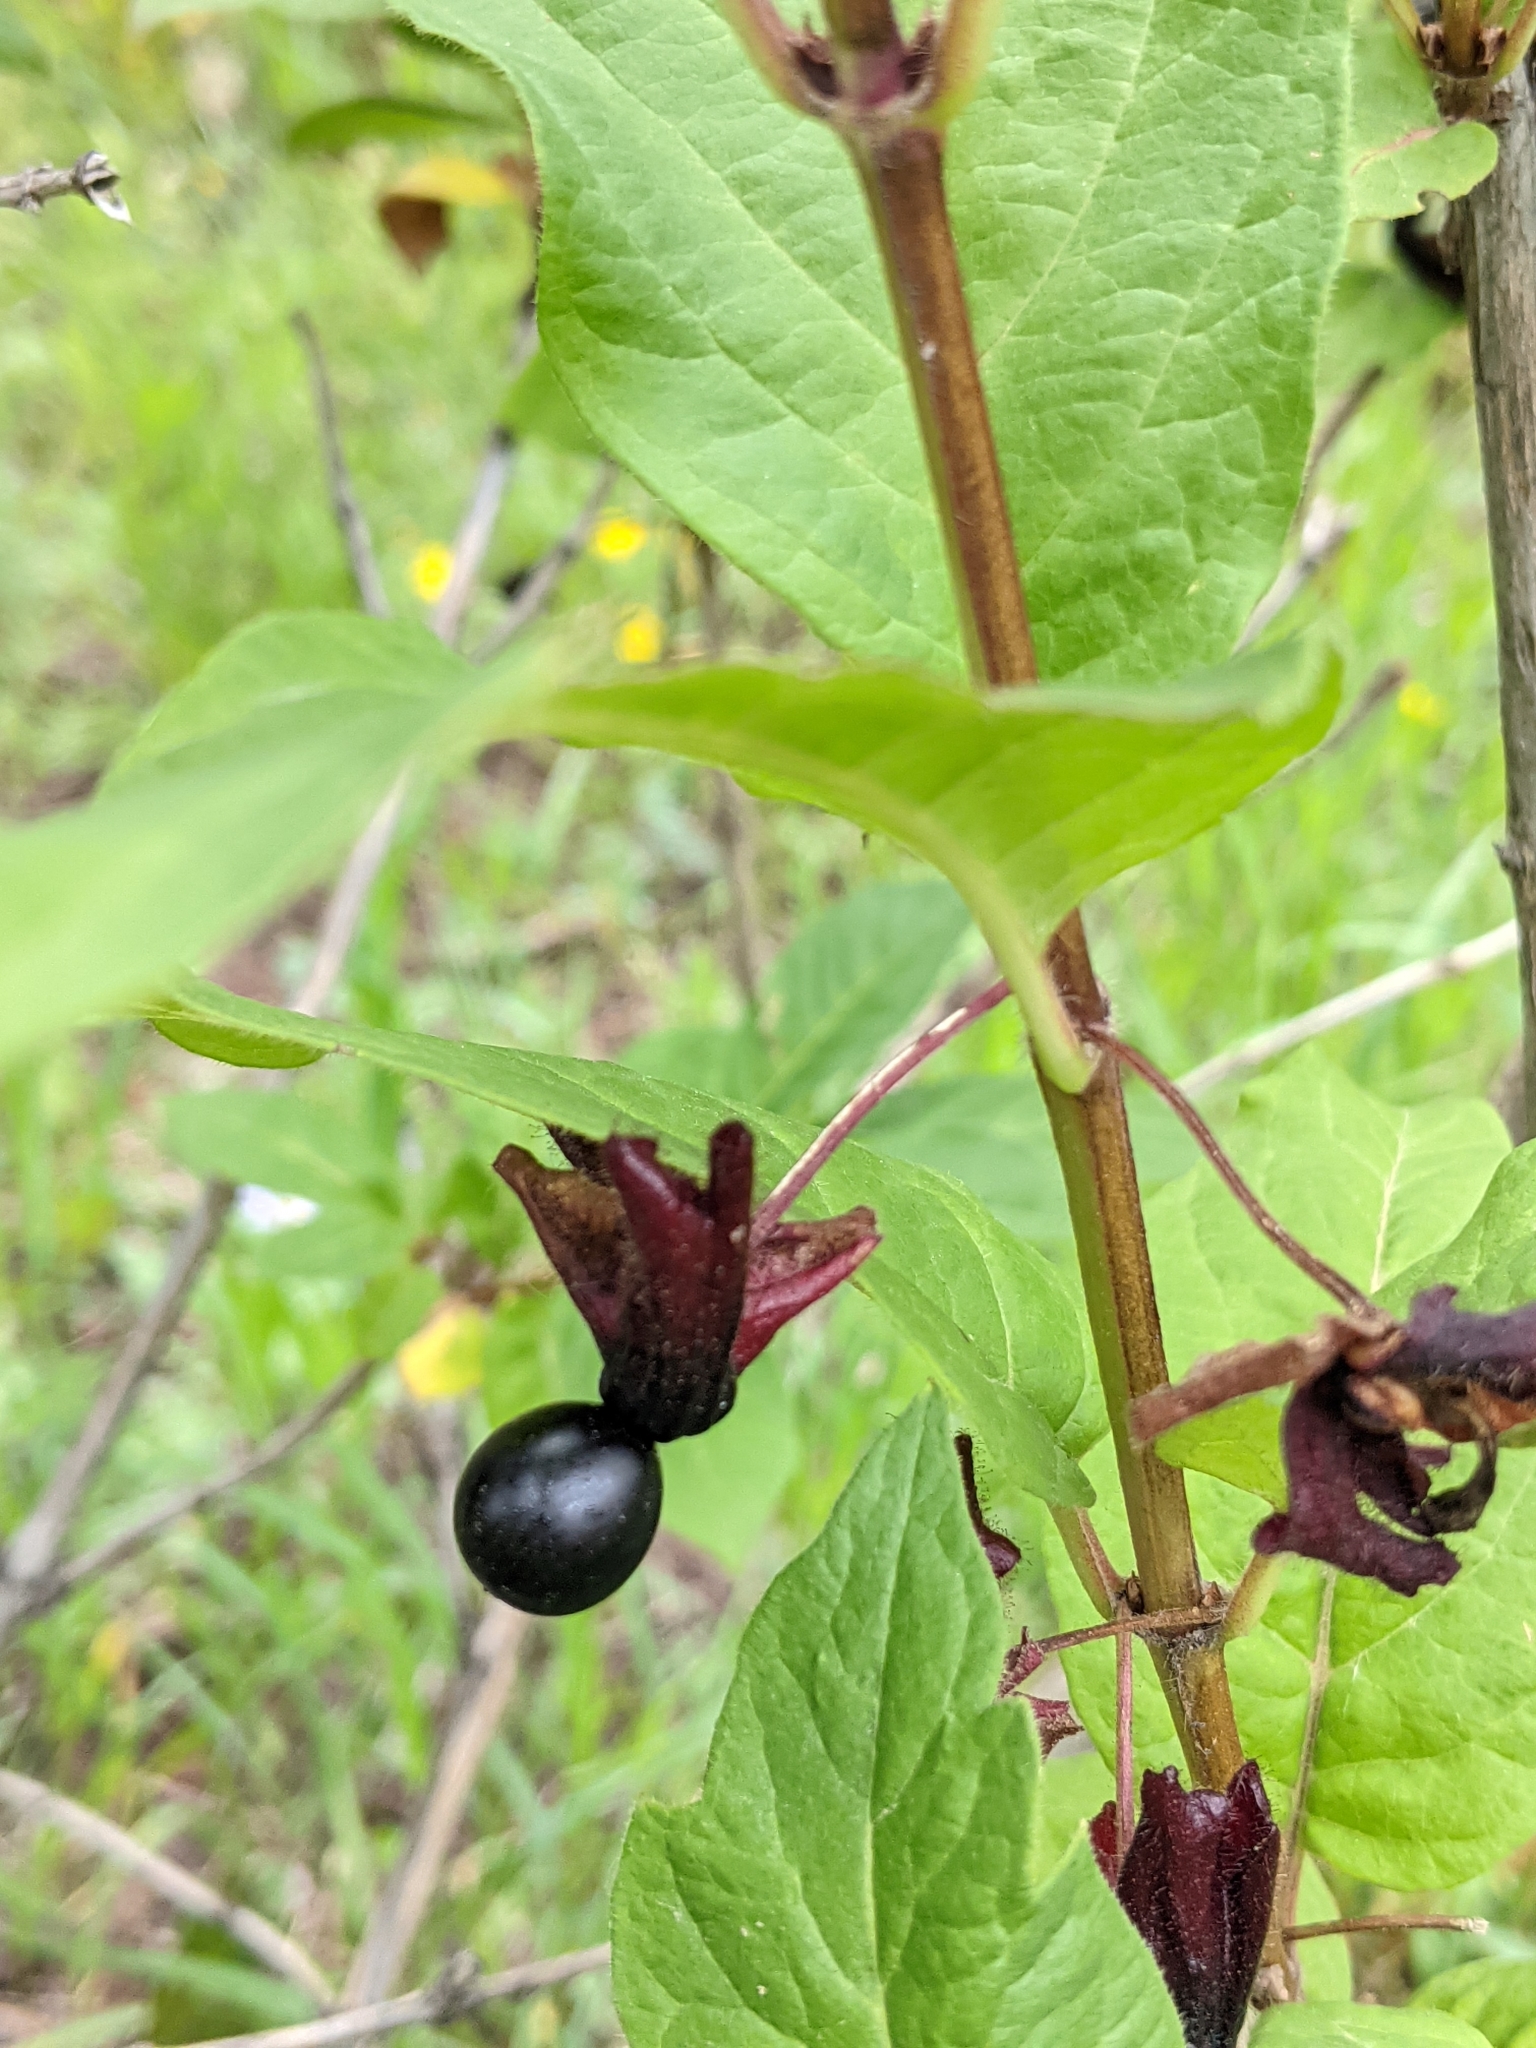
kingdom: Plantae
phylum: Tracheophyta
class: Magnoliopsida
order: Dipsacales
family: Caprifoliaceae
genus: Lonicera
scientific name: Lonicera involucrata
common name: Californian honeysuckle
